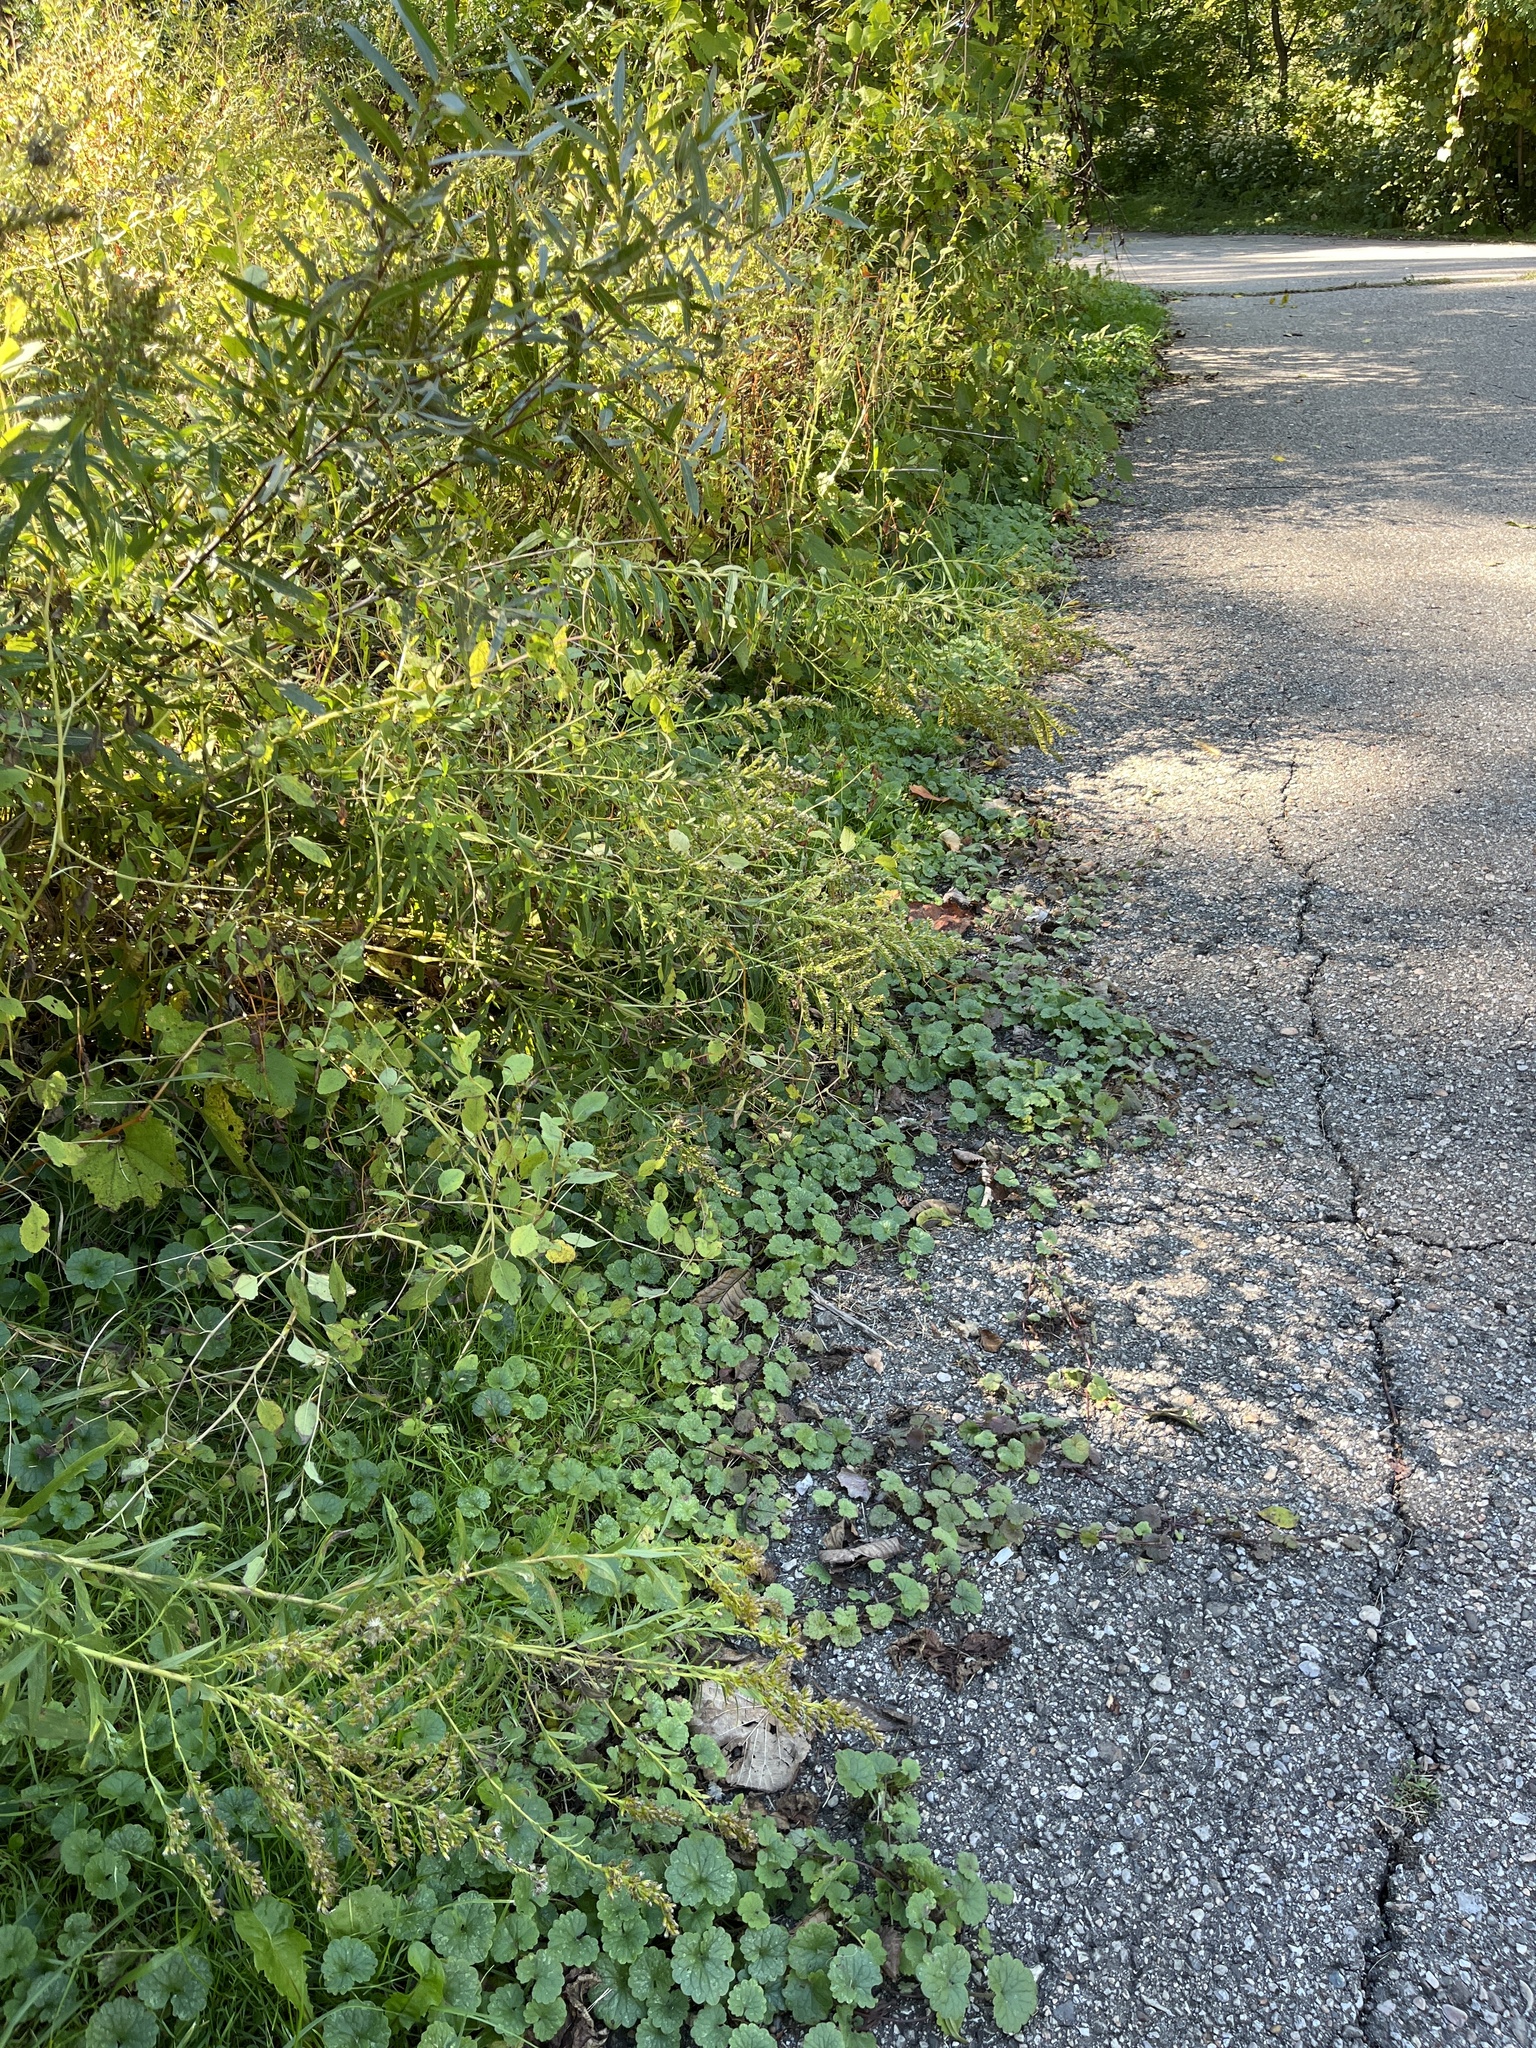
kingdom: Plantae
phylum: Tracheophyta
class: Magnoliopsida
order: Lamiales
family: Lamiaceae
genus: Glechoma
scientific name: Glechoma hederacea
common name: Ground ivy
